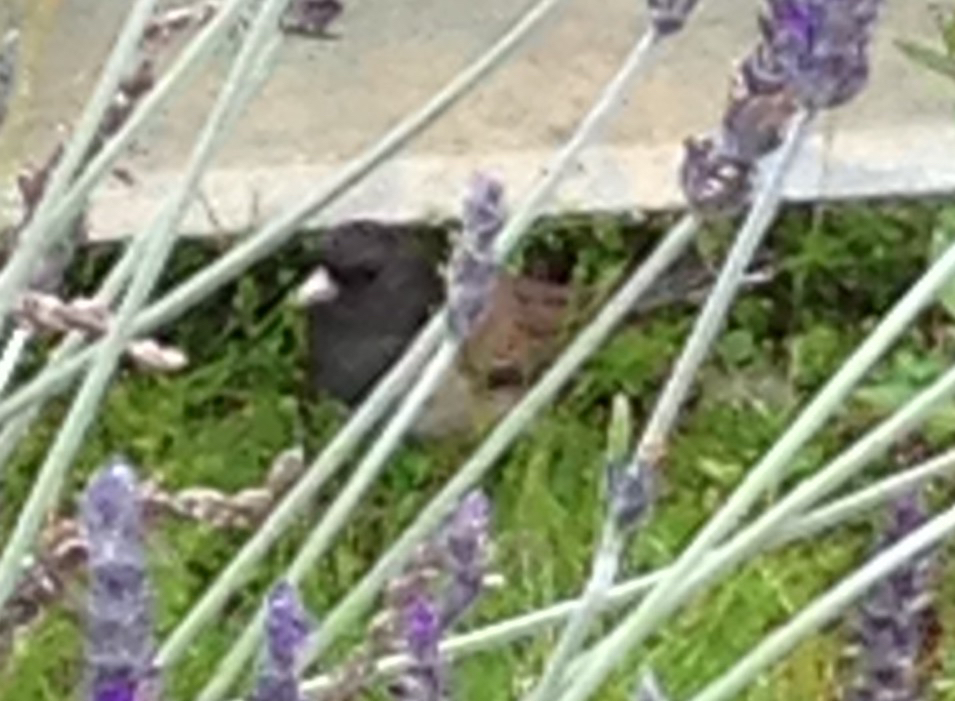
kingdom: Animalia
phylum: Chordata
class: Aves
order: Passeriformes
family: Passerellidae
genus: Junco
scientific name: Junco hyemalis
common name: Dark-eyed junco
